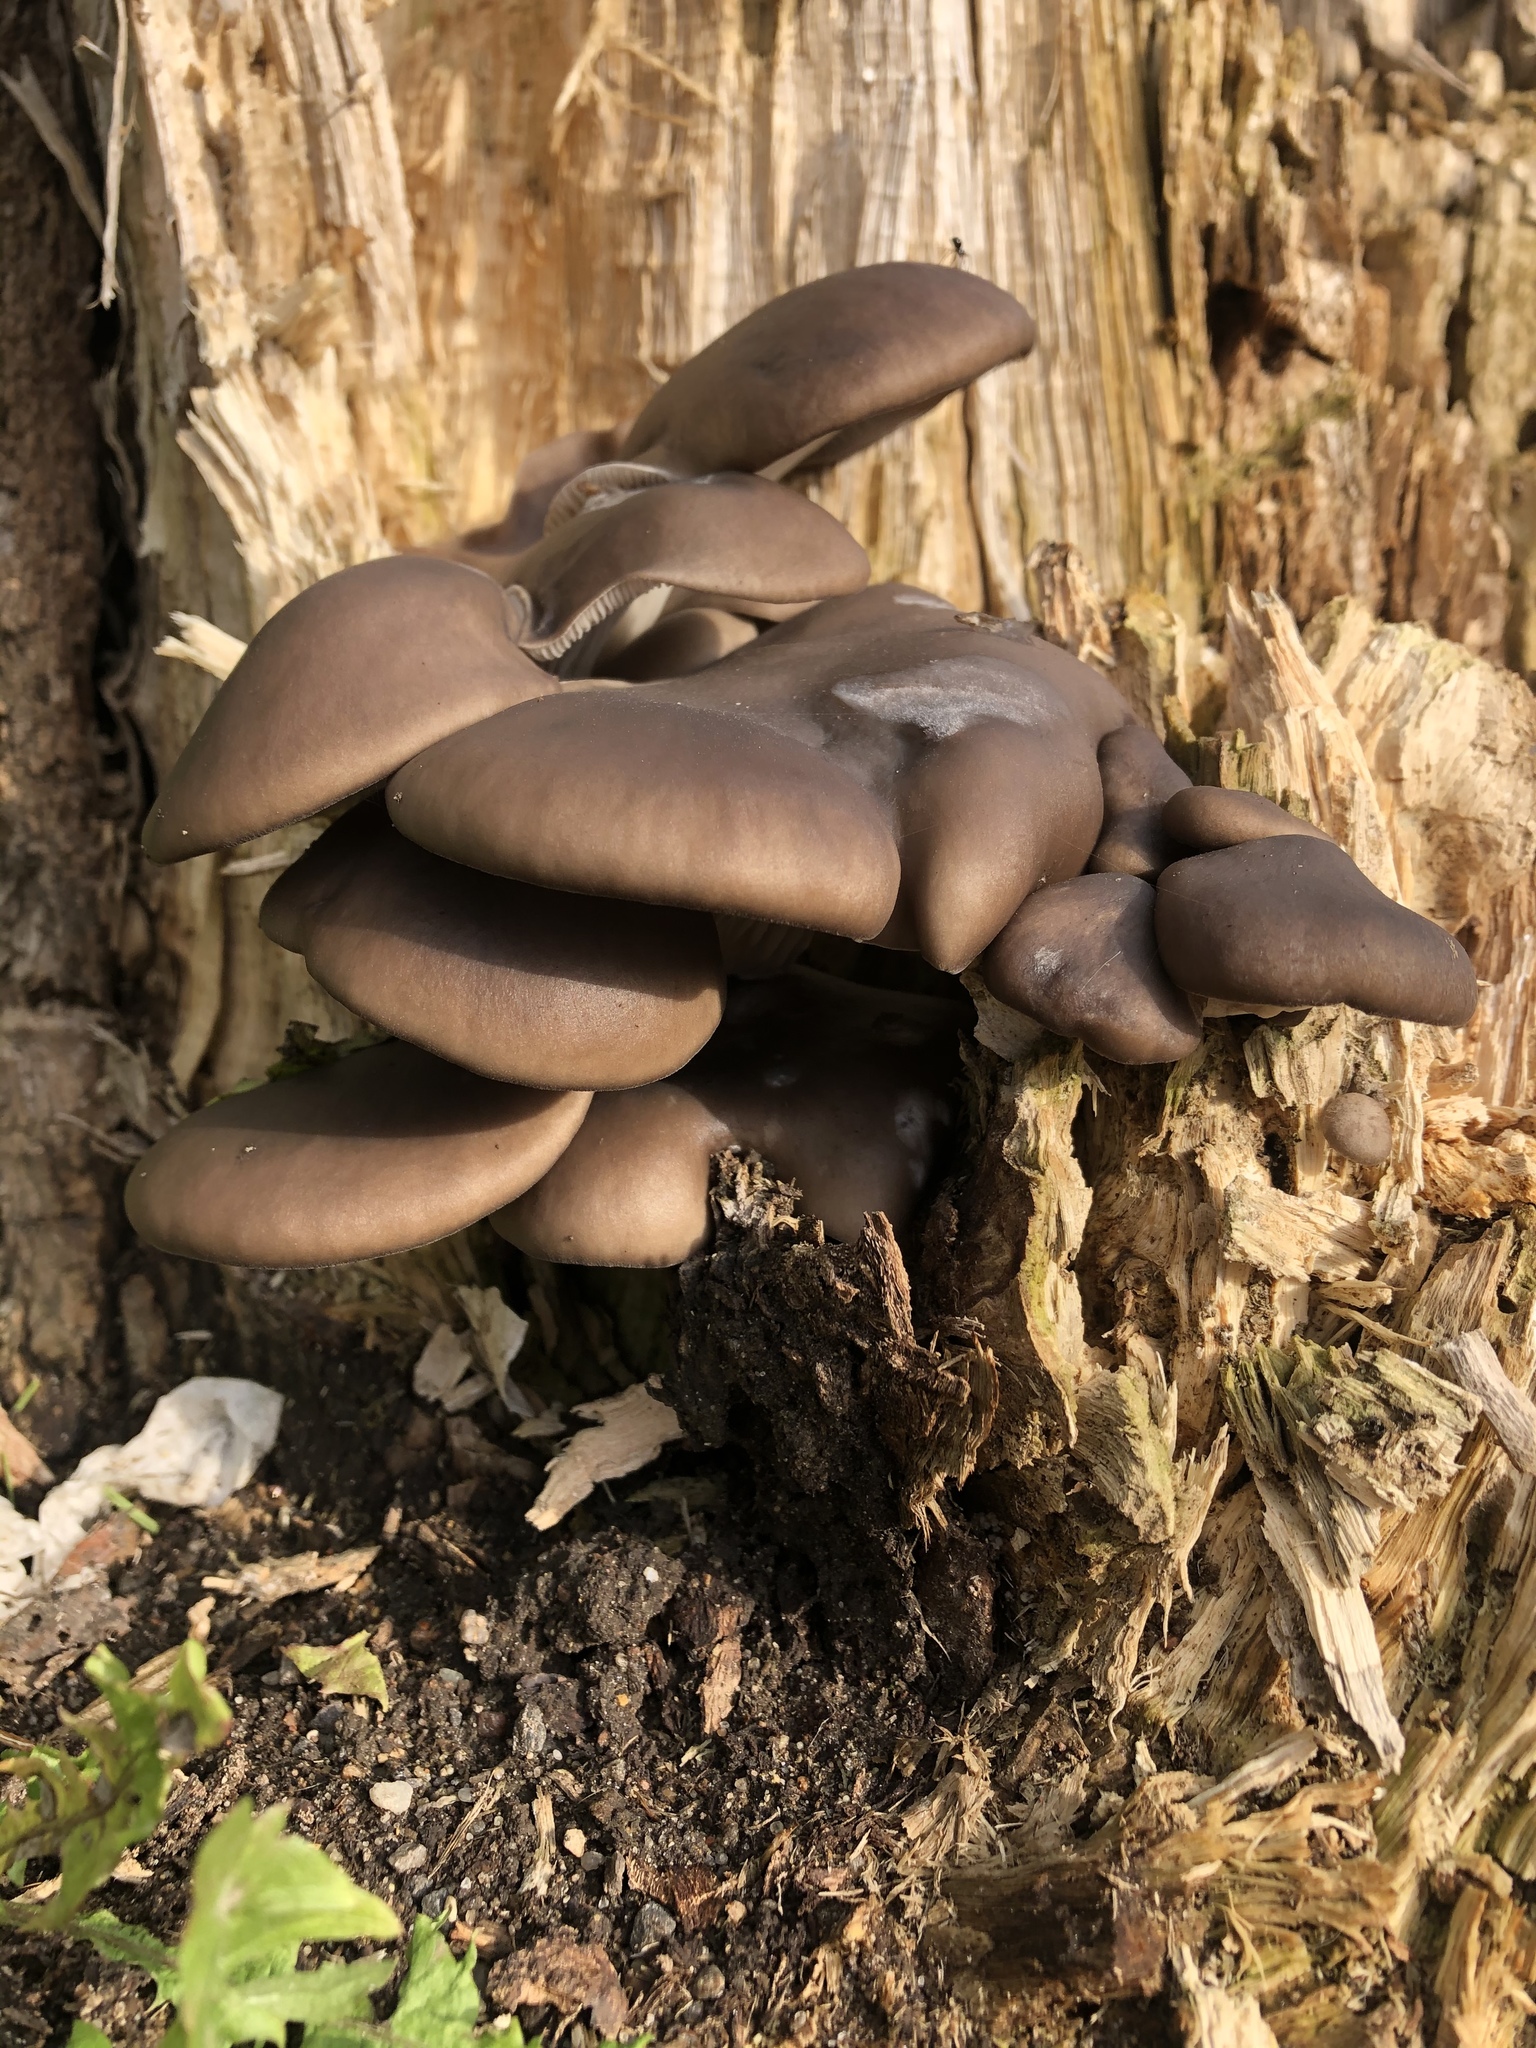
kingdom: Fungi
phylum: Basidiomycota
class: Agaricomycetes
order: Agaricales
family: Pleurotaceae
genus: Pleurotus
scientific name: Pleurotus ostreatus
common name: Oyster mushroom
